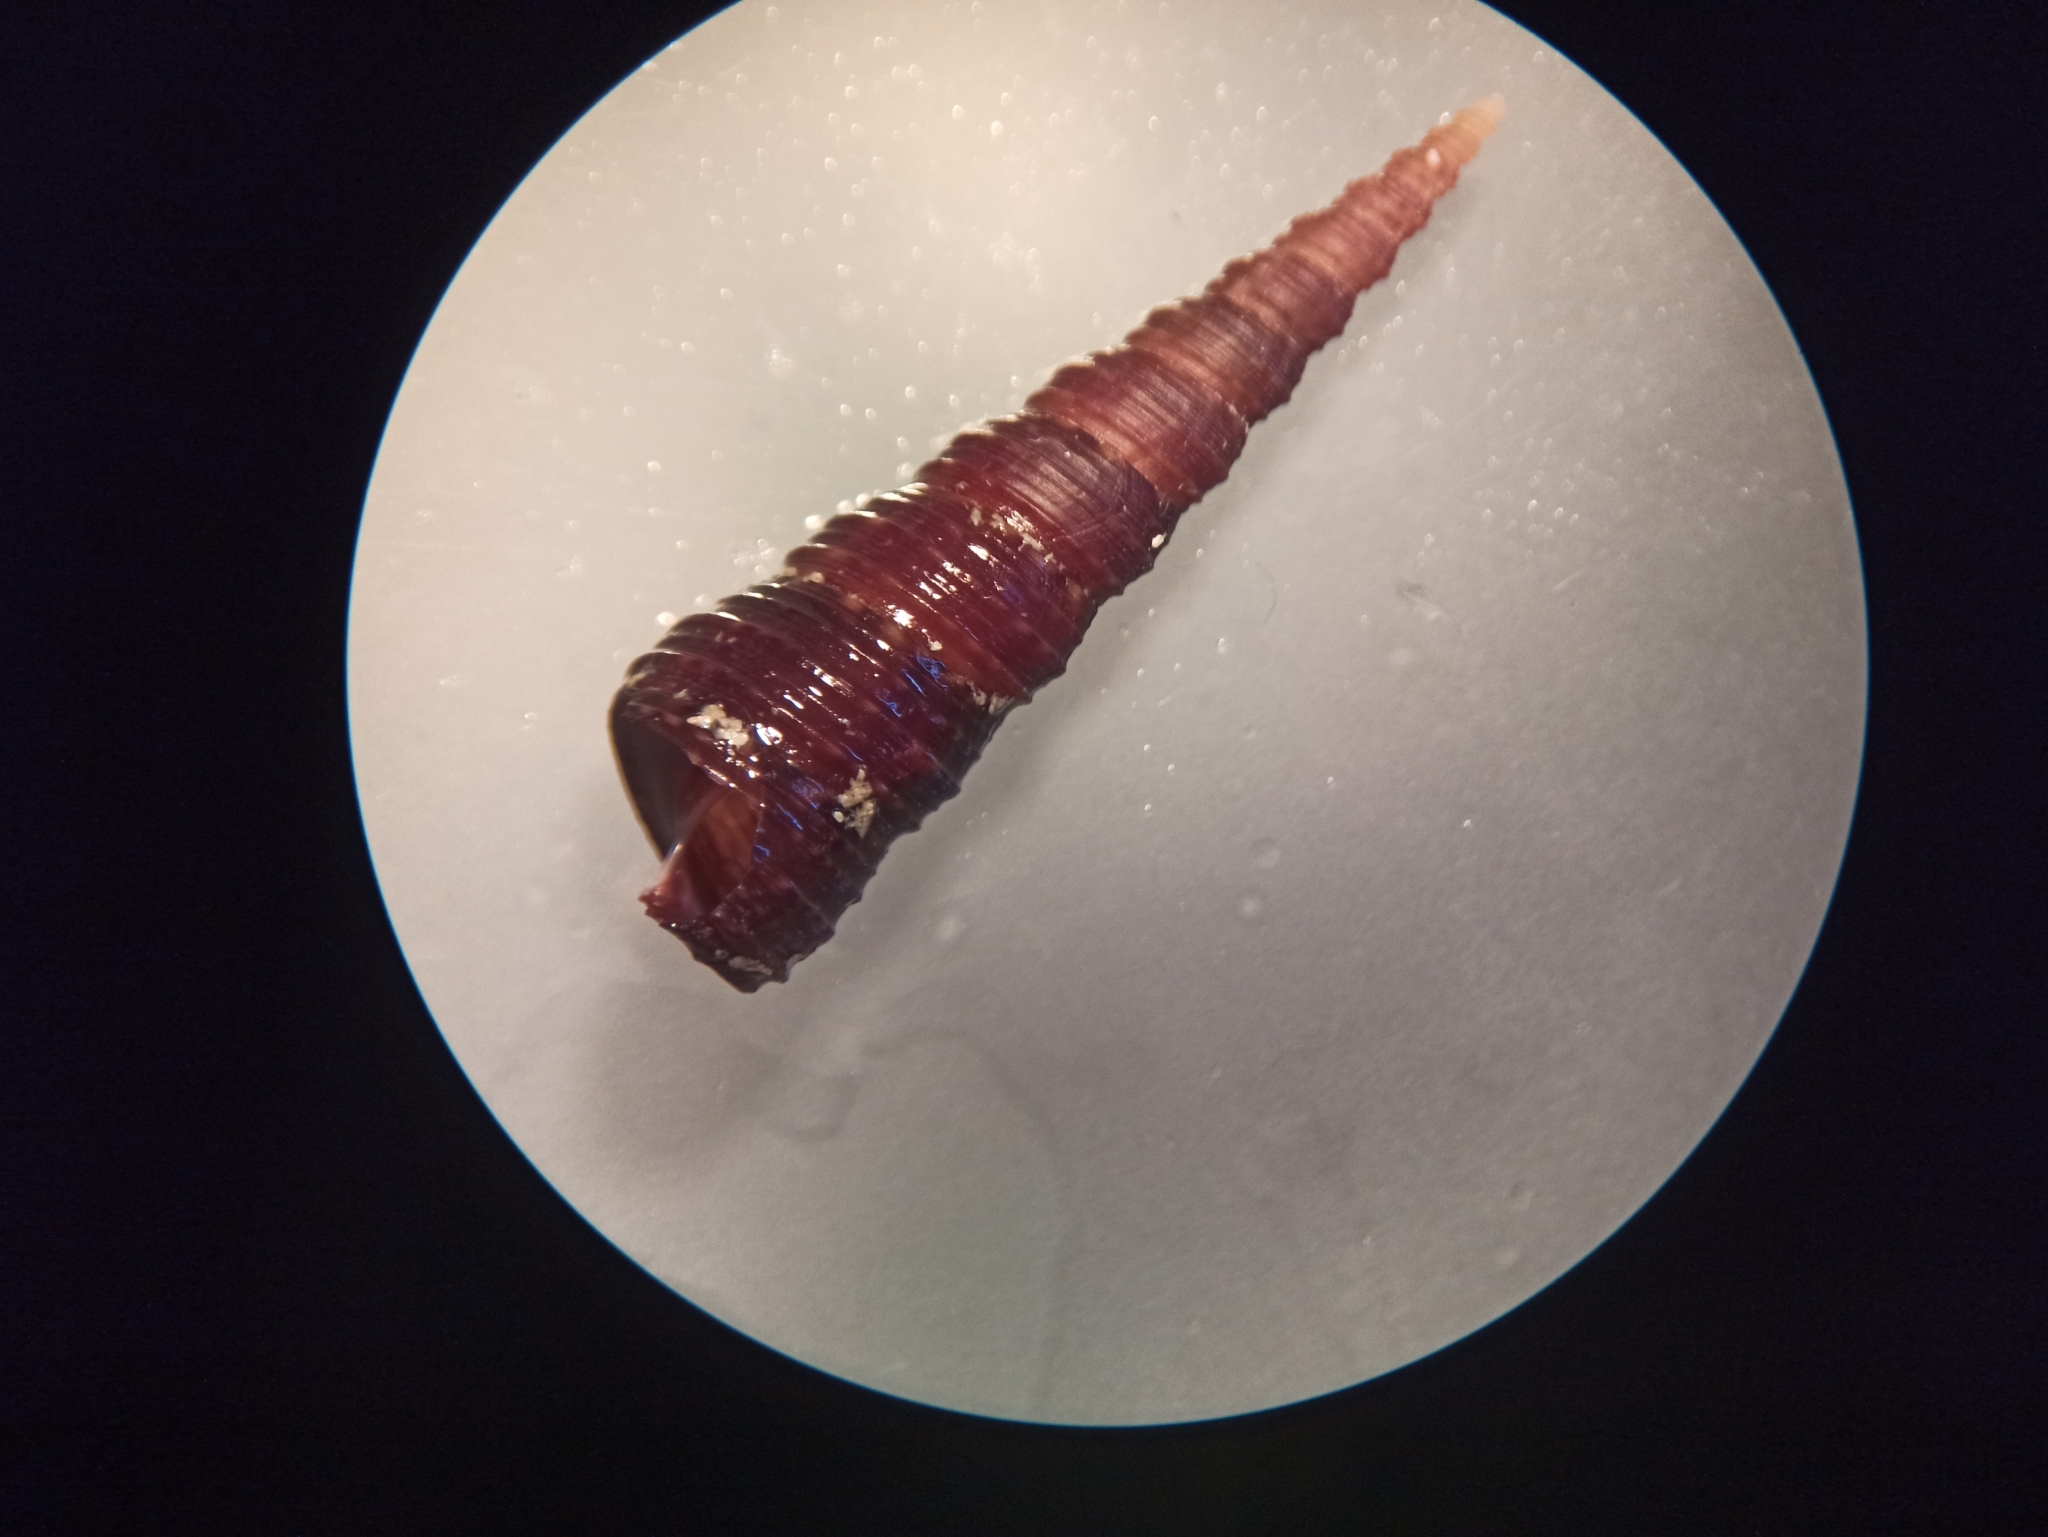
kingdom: Animalia
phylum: Mollusca
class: Gastropoda
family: Turritellidae
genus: Turritellinella
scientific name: Turritellinella tricarinata
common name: Auger shell
